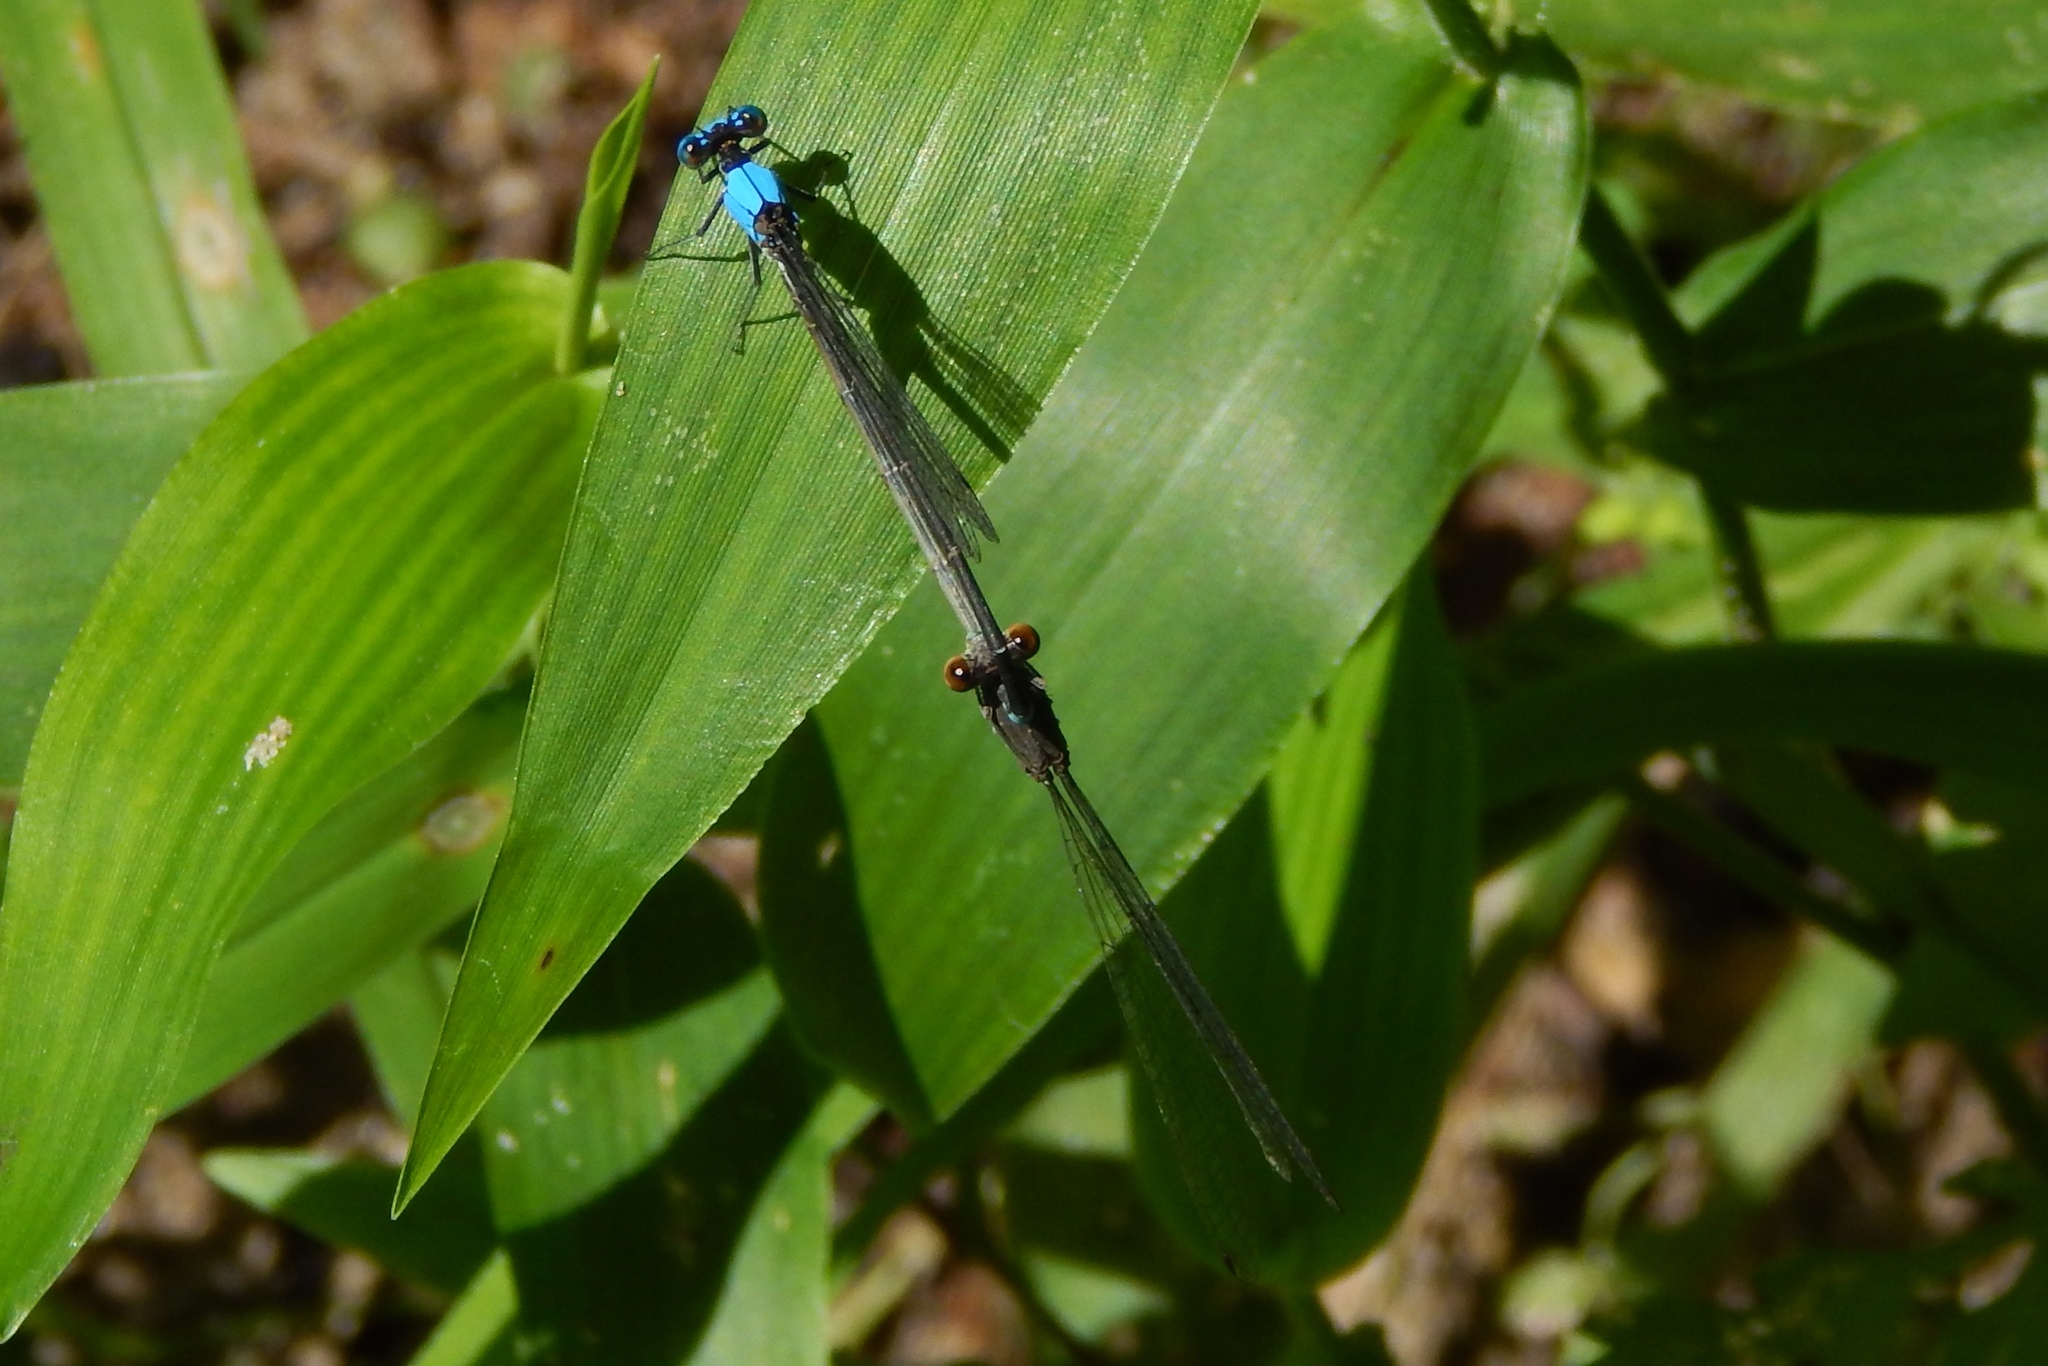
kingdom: Animalia
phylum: Arthropoda
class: Insecta
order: Odonata
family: Coenagrionidae
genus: Argia
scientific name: Argia apicalis
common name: Blue-fronted dancer
